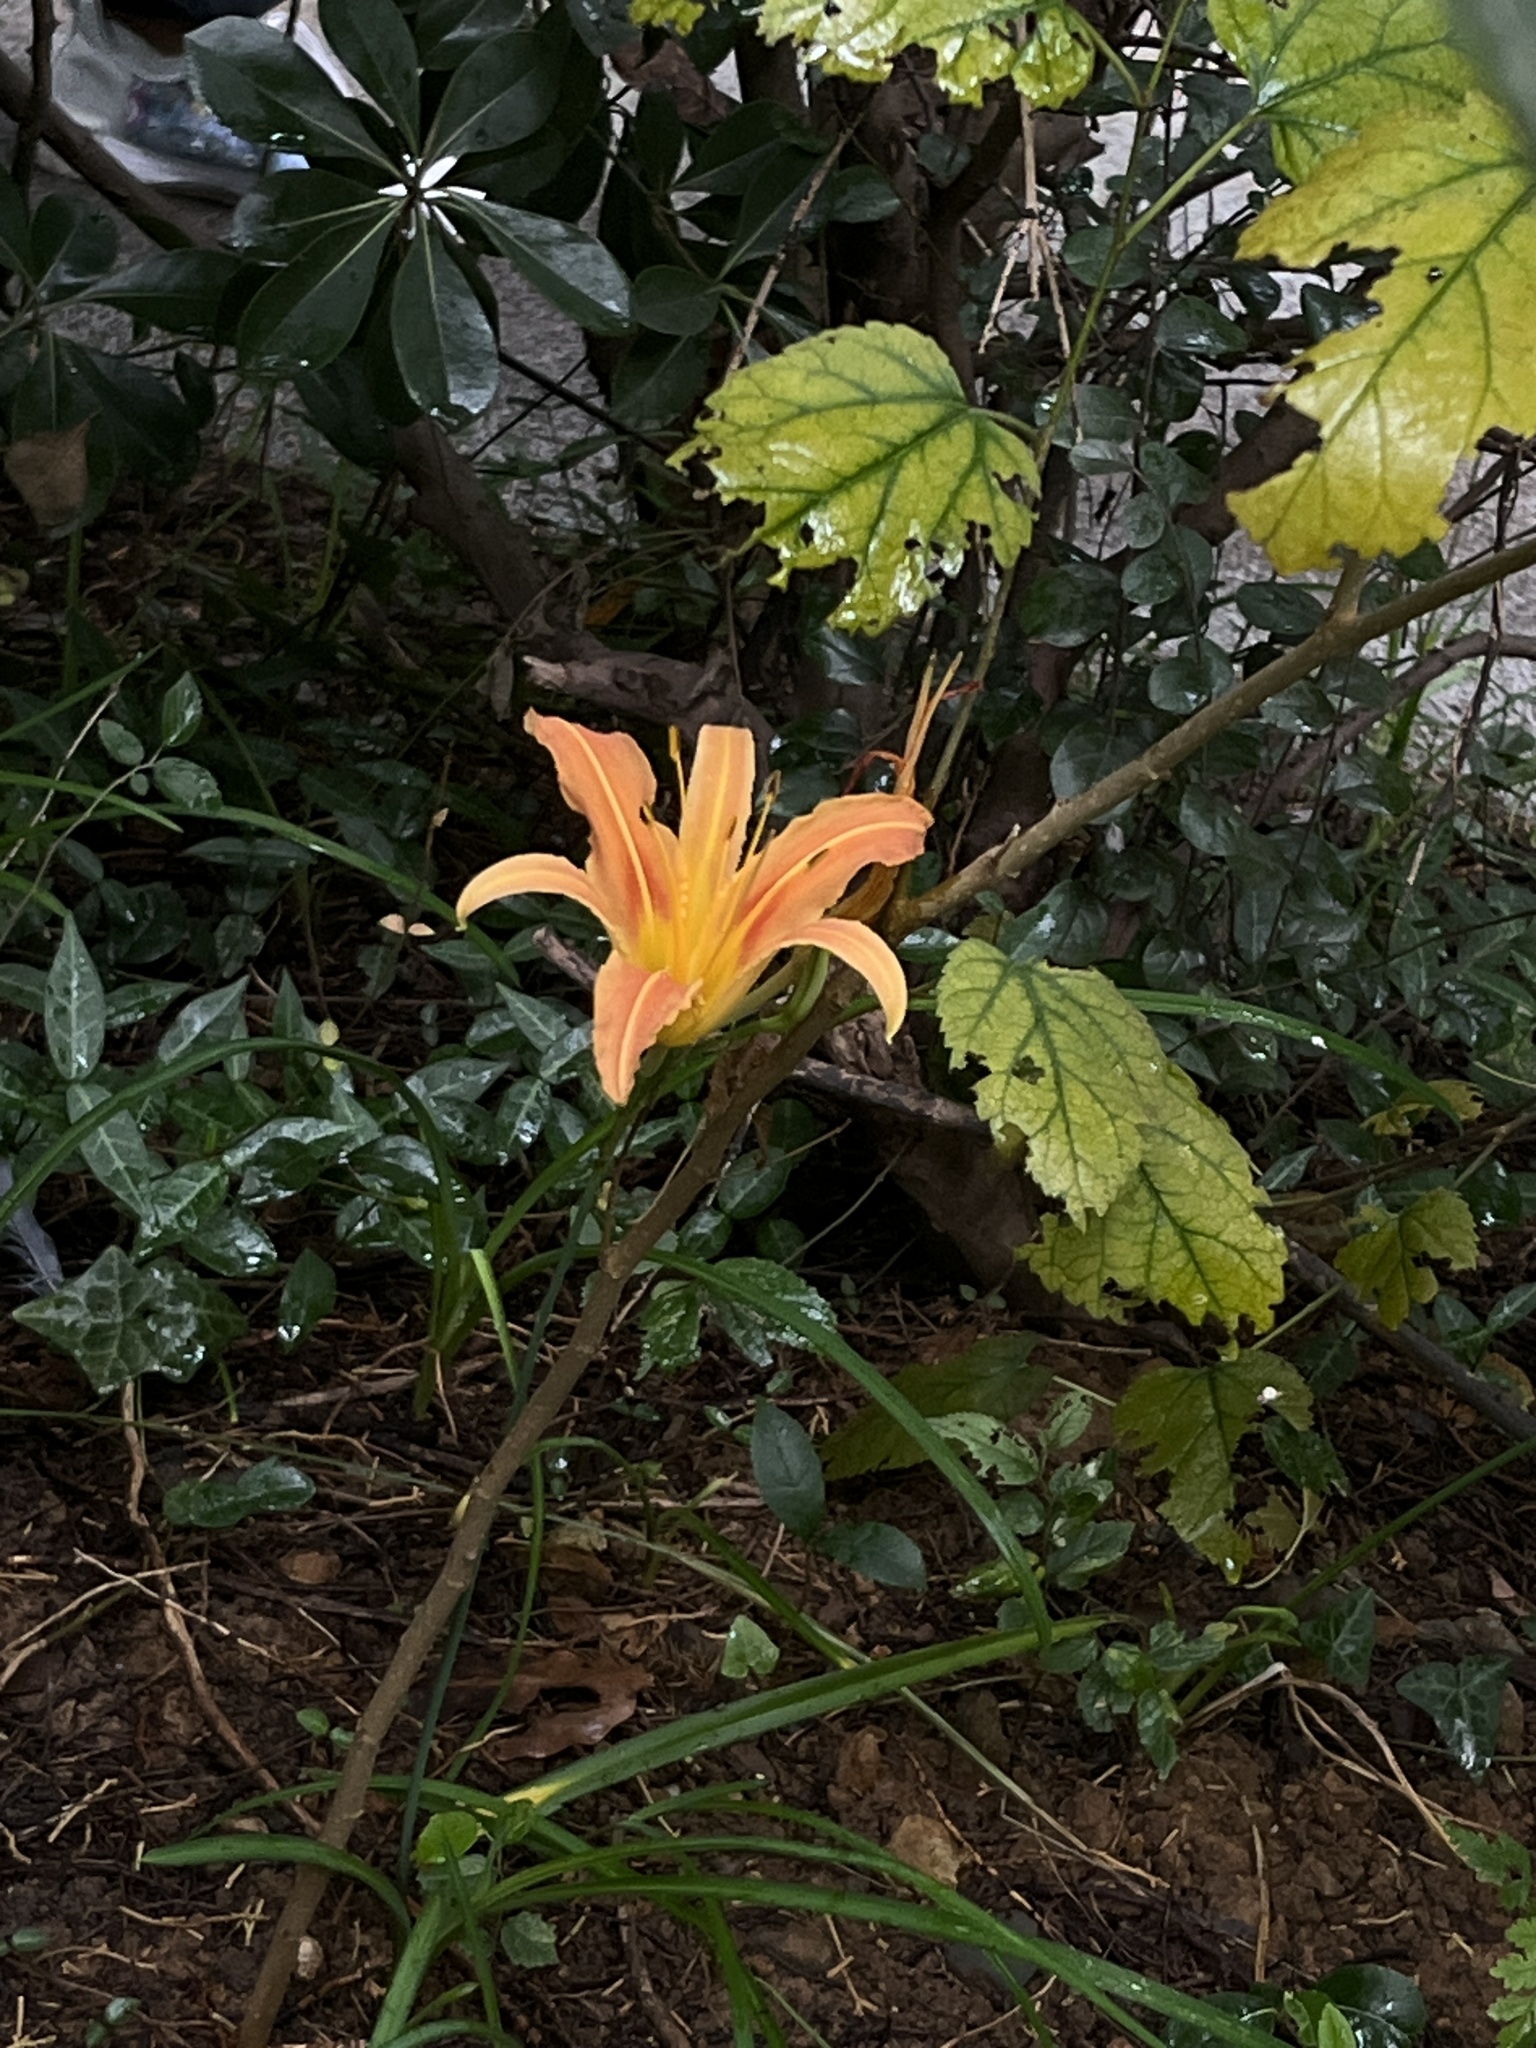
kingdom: Plantae
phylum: Tracheophyta
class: Liliopsida
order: Asparagales
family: Asphodelaceae
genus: Hemerocallis
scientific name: Hemerocallis fulva
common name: Orange day-lily
